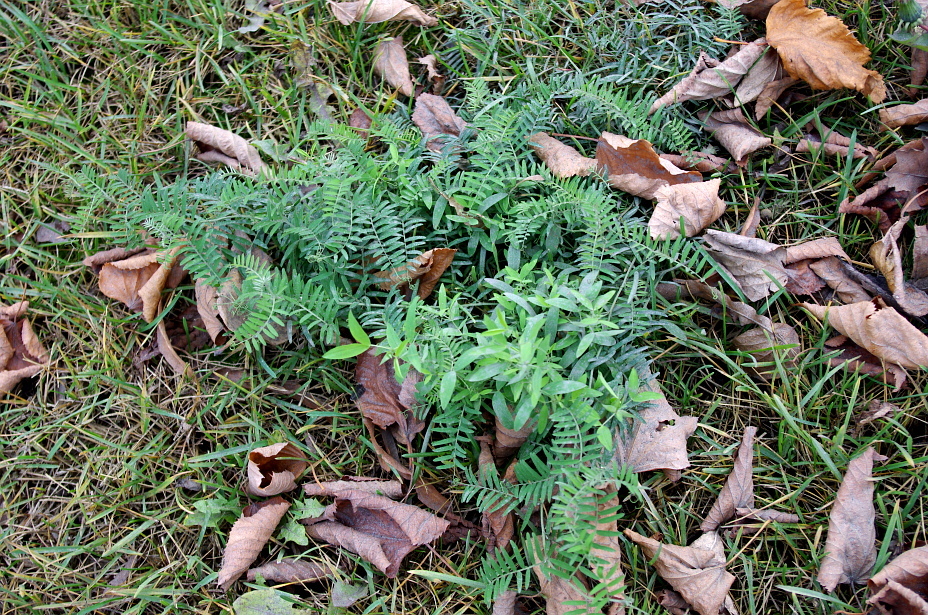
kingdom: Plantae
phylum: Tracheophyta
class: Magnoliopsida
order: Fabales
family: Fabaceae
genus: Lathyrus
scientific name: Lathyrus pratensis
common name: Meadow vetchling
